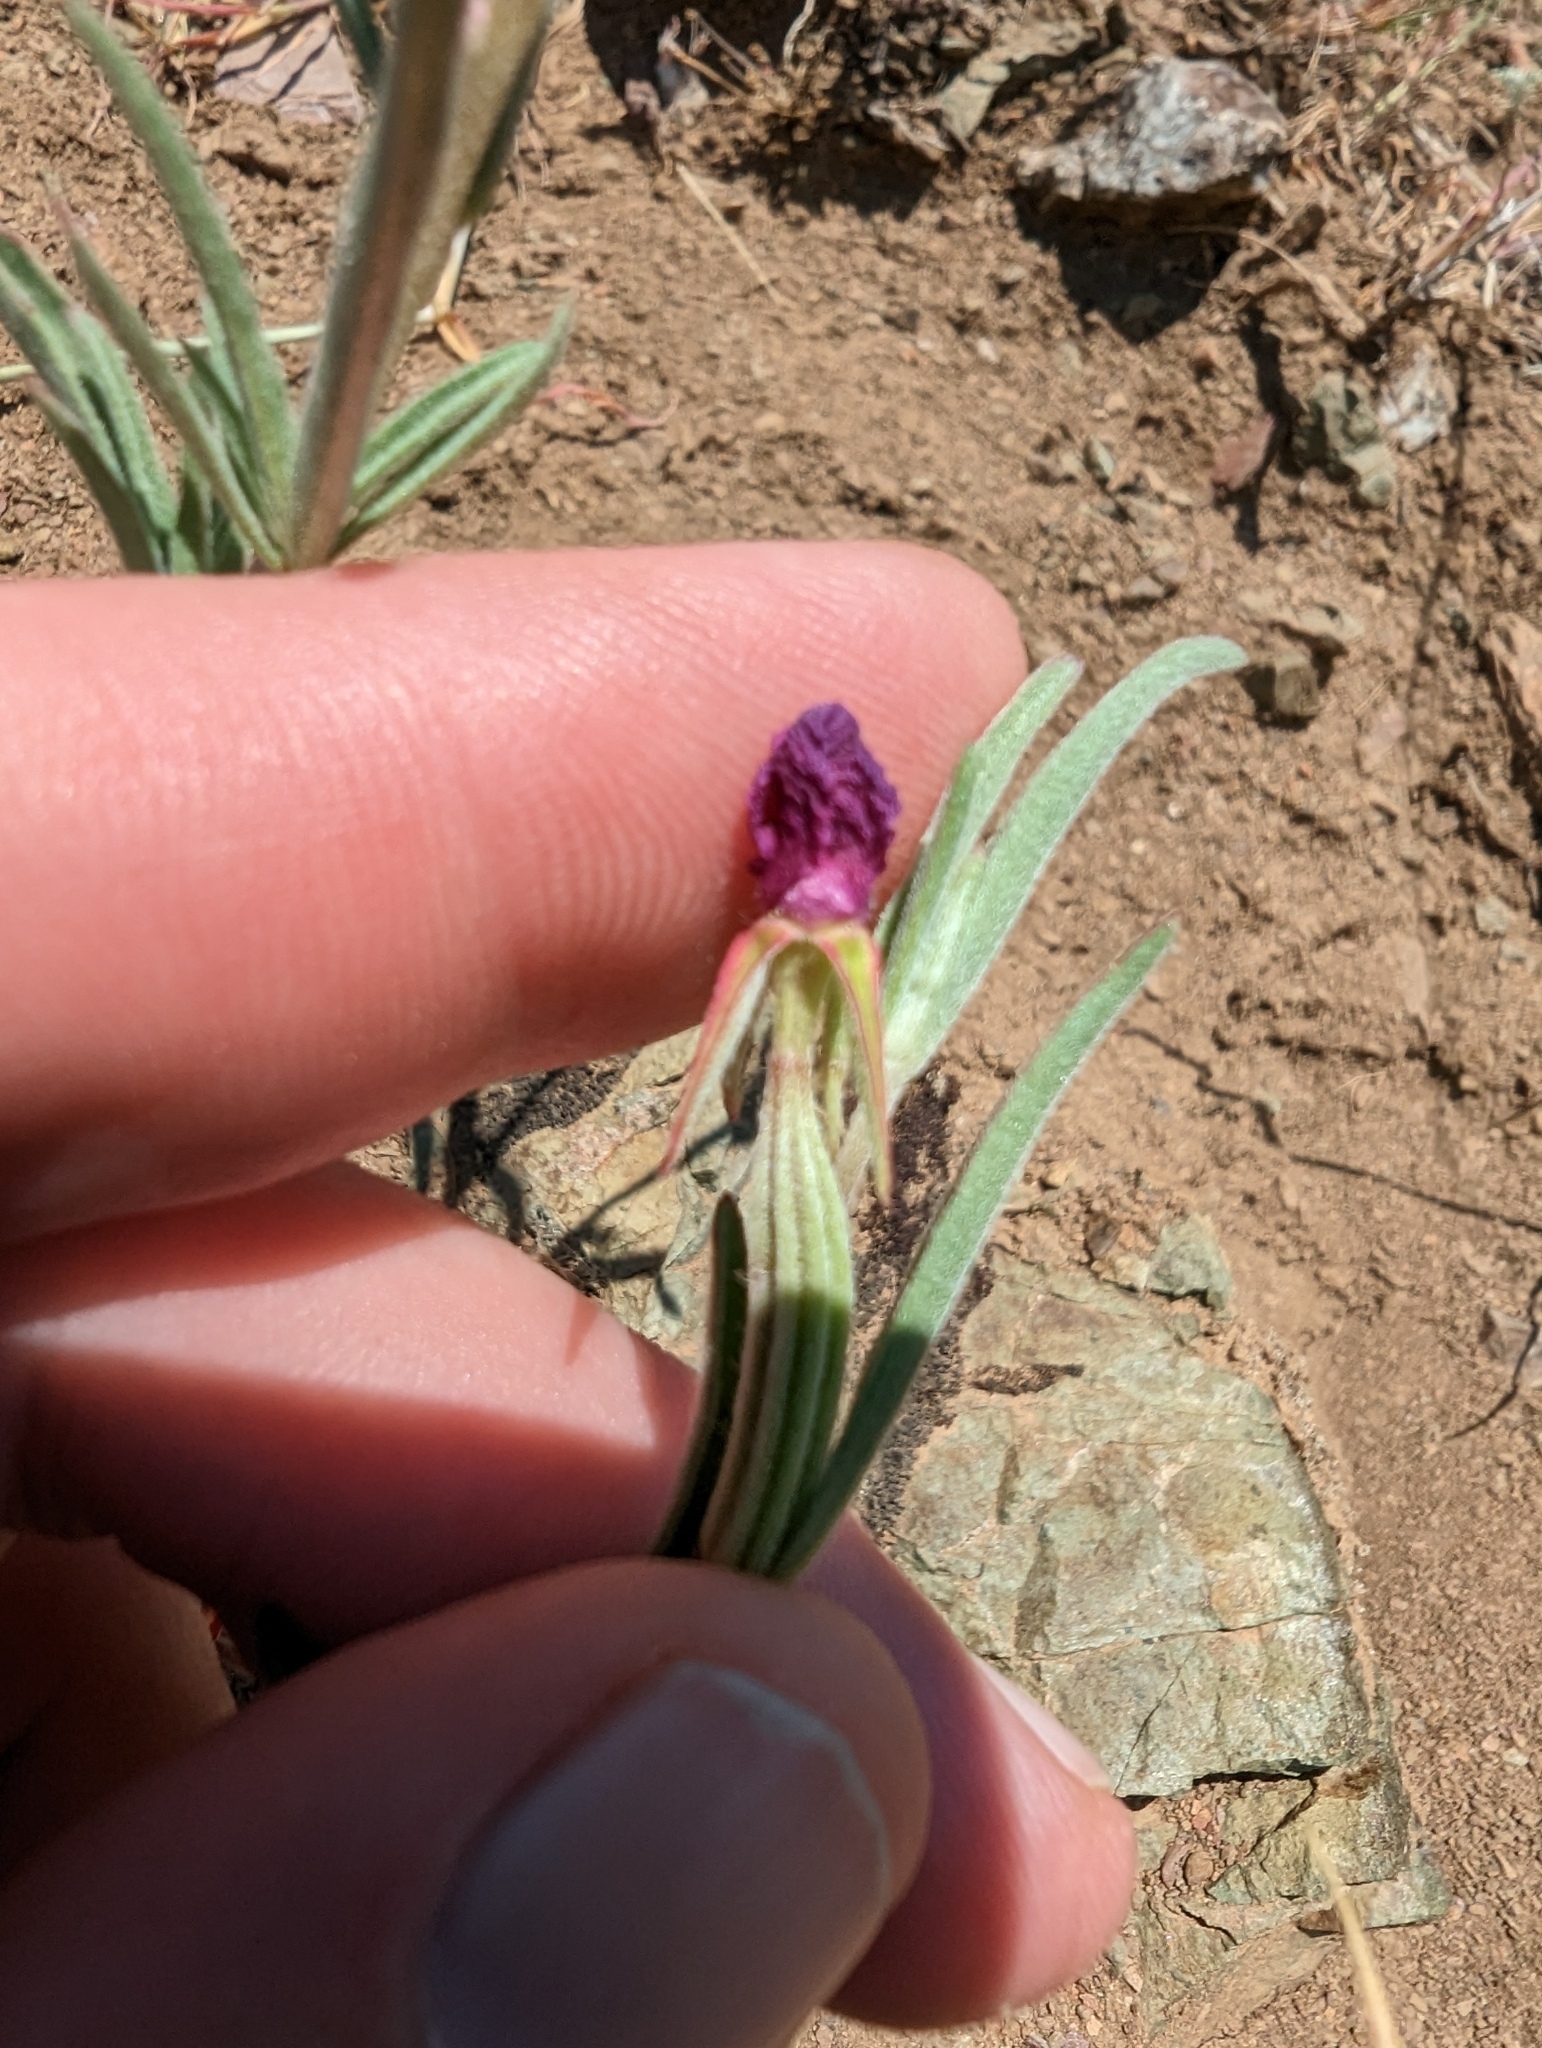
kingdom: Plantae
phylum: Tracheophyta
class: Magnoliopsida
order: Myrtales
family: Onagraceae
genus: Clarkia
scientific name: Clarkia purpurea
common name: Purple clarkia
